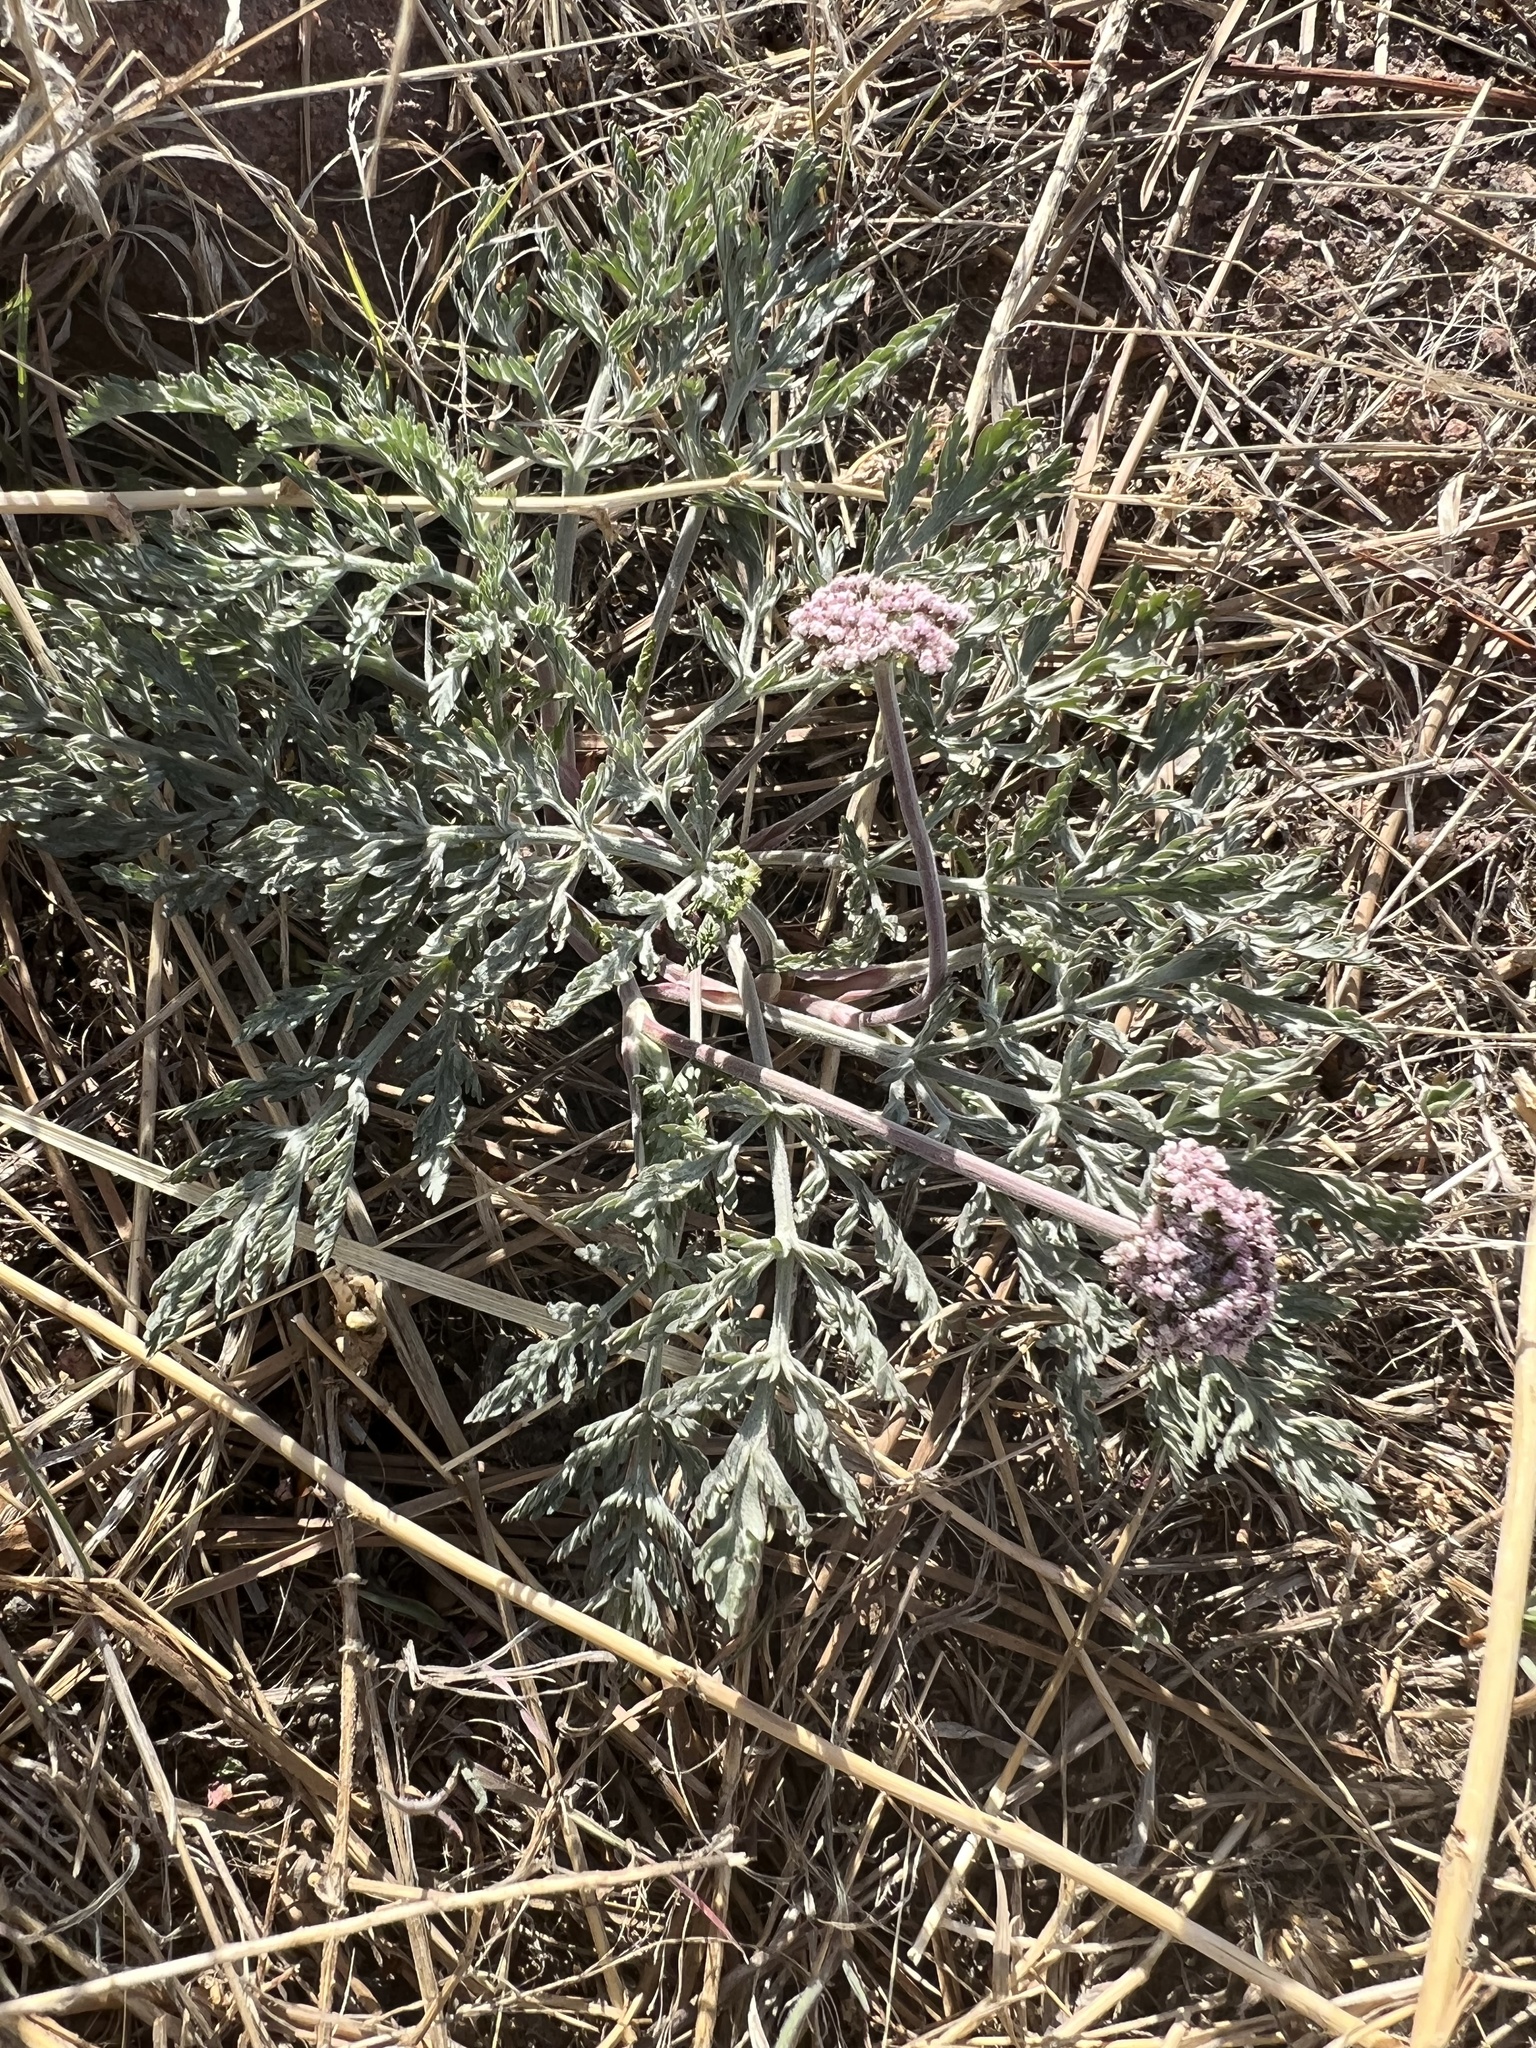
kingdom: Plantae
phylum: Tracheophyta
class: Magnoliopsida
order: Apiales
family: Apiaceae
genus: Lomatium
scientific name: Lomatium orientale
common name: Eastern cous
